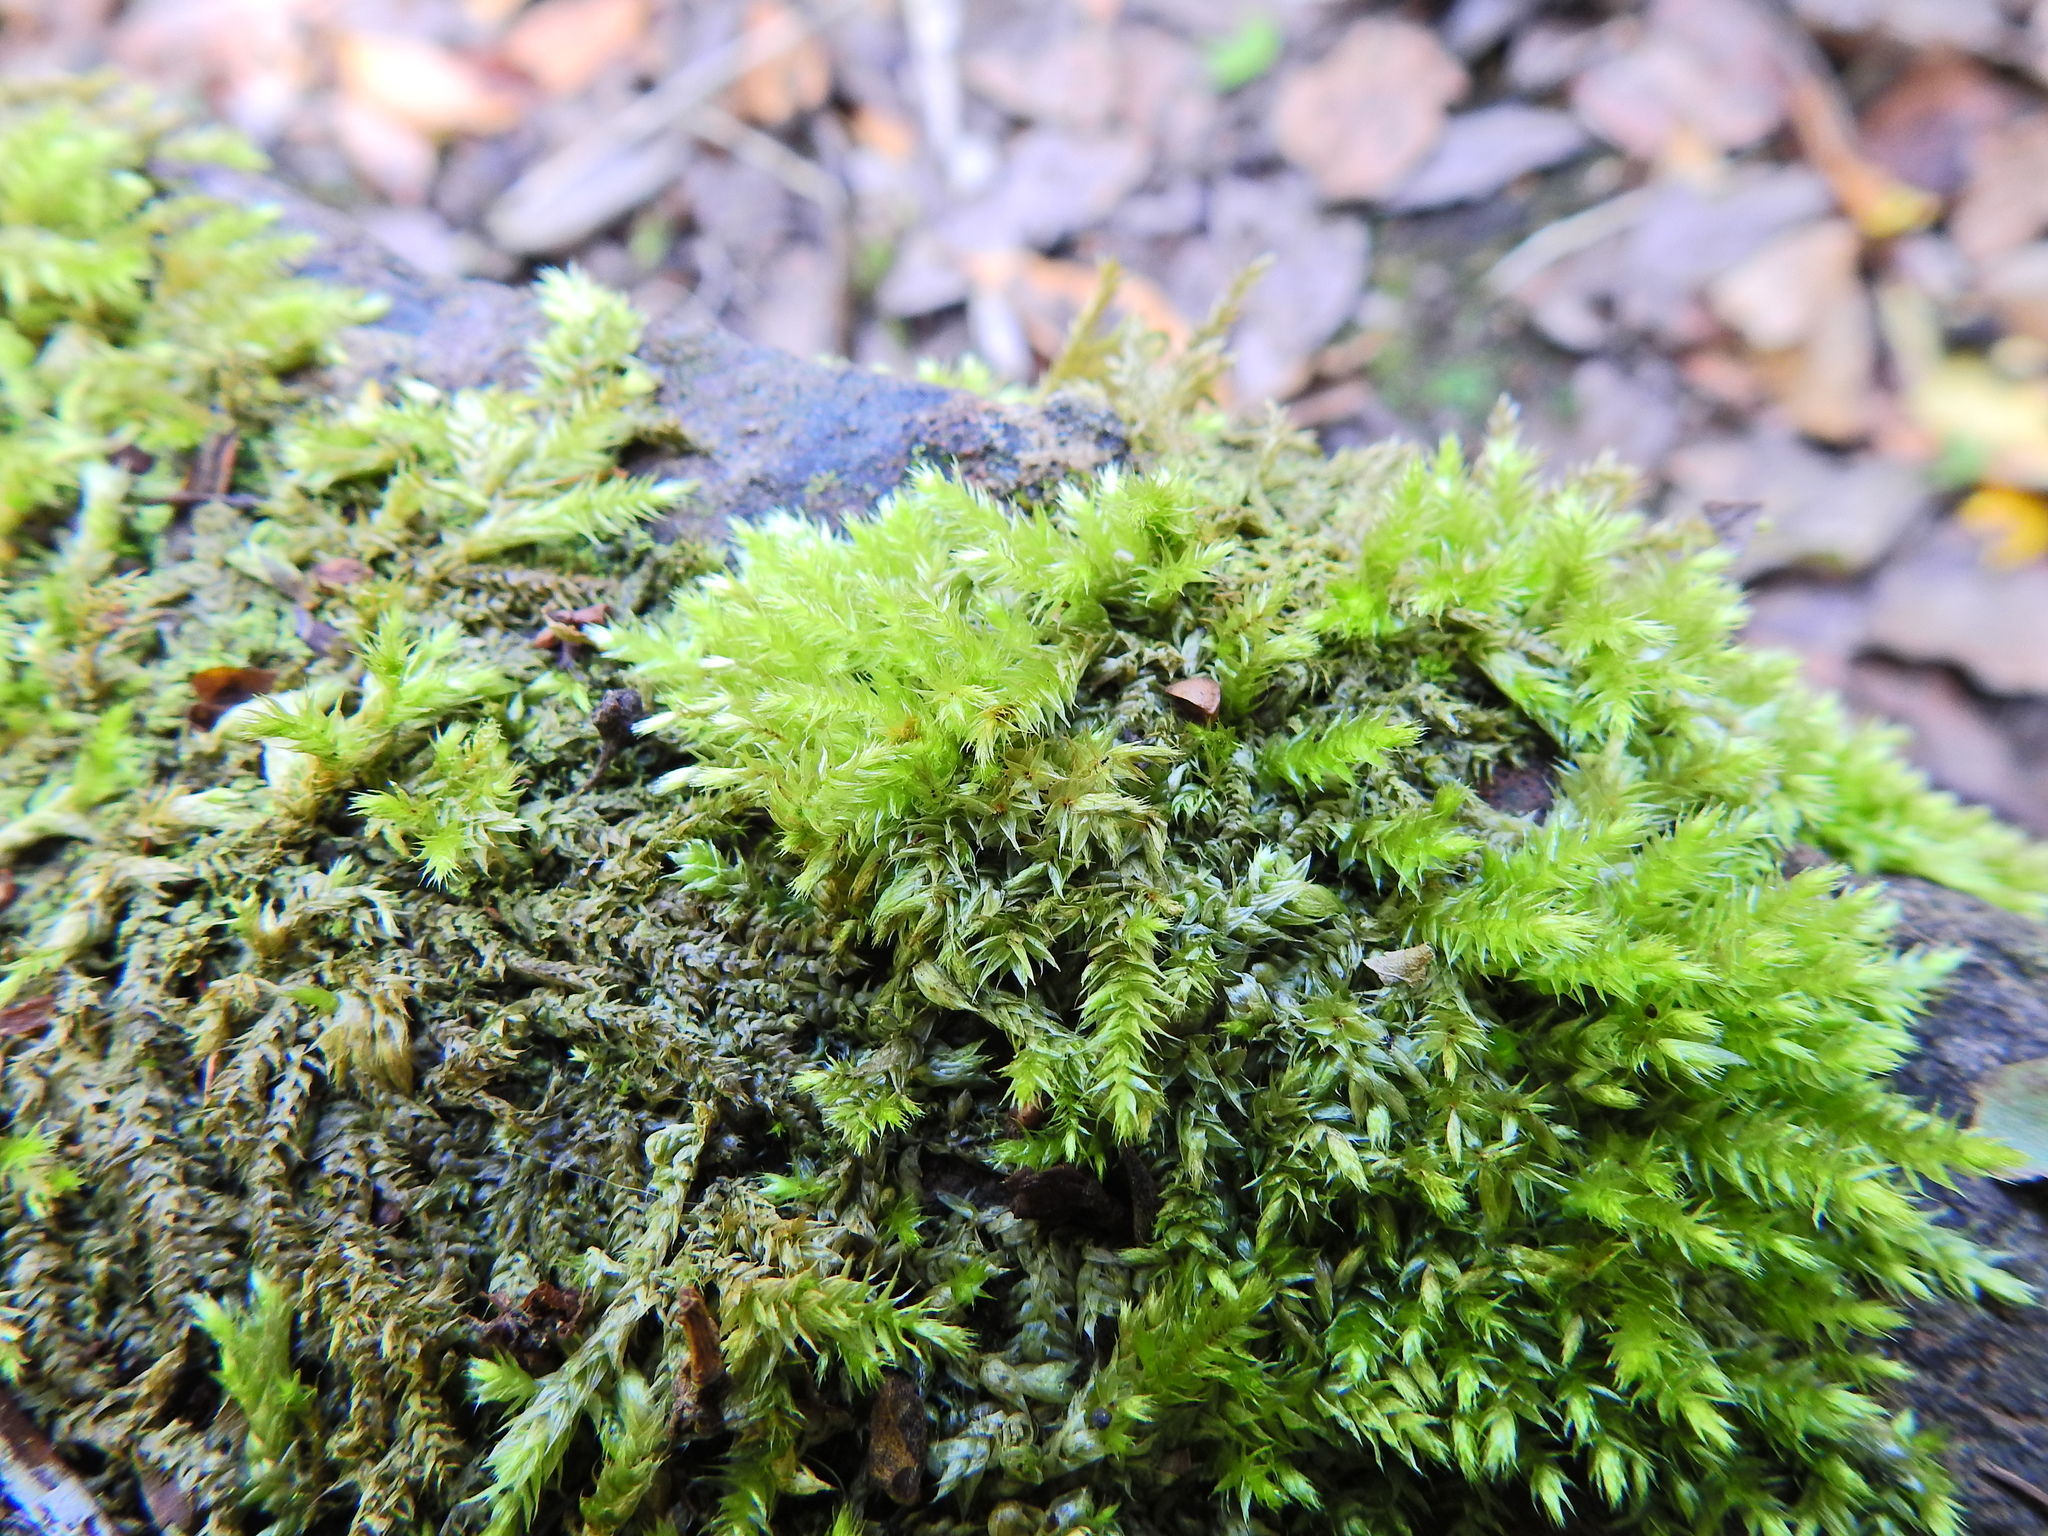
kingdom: Plantae
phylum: Bryophyta
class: Bryopsida
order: Hypnales
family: Brachytheciaceae
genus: Homalothecium
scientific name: Homalothecium sericeum
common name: Silky wall feather-moss
